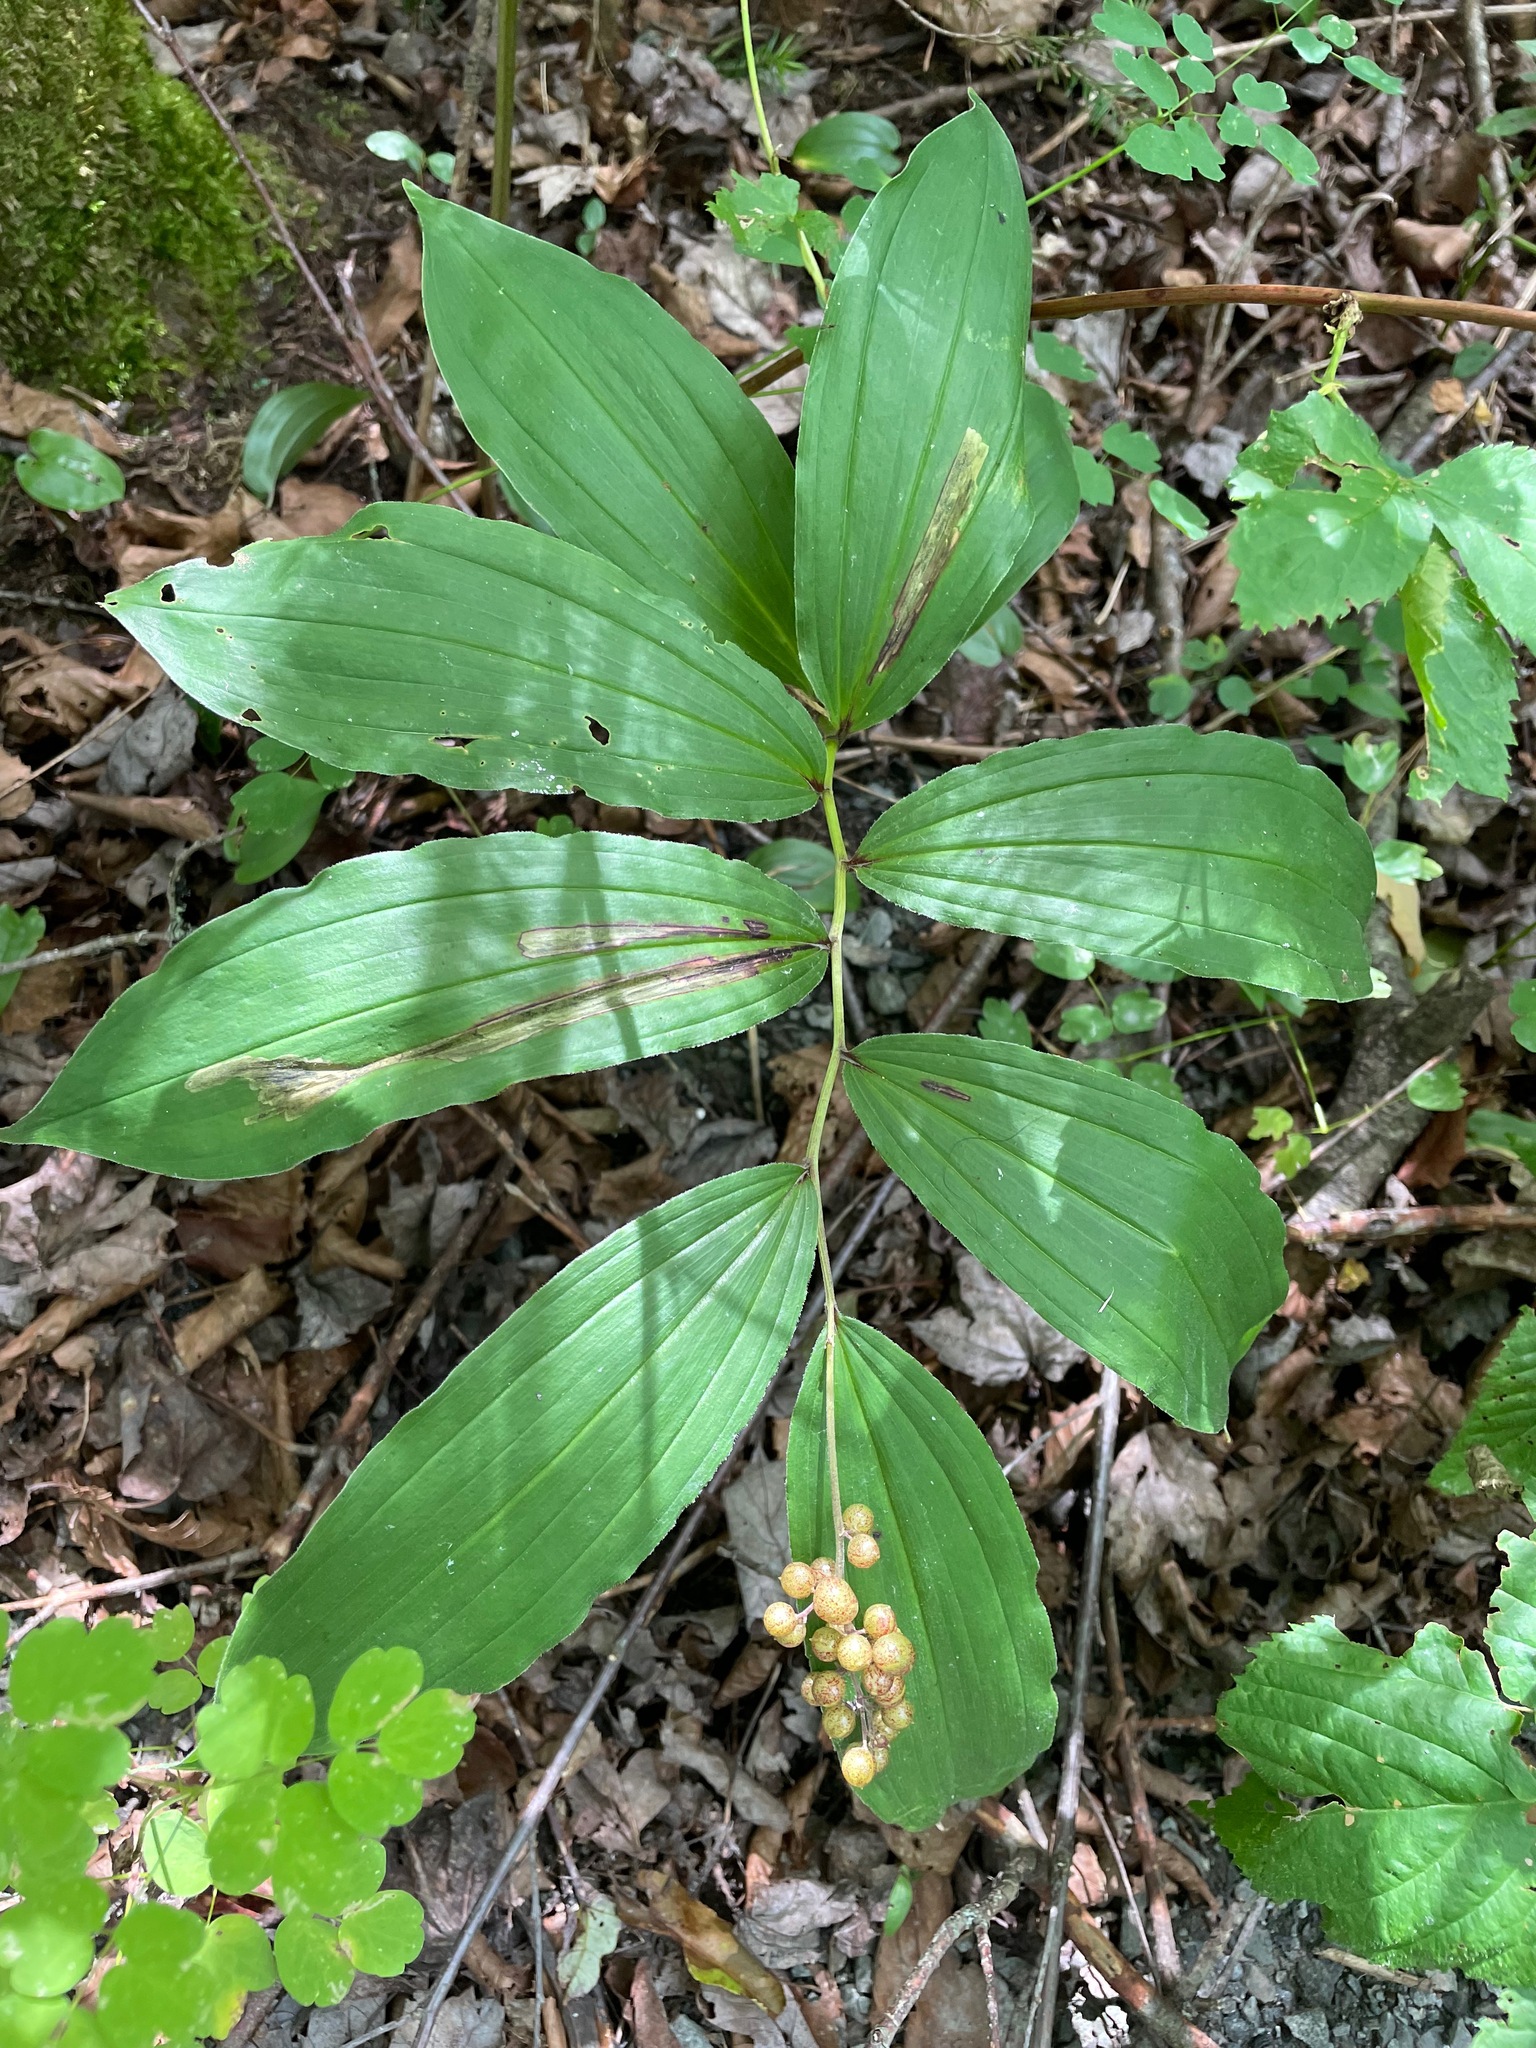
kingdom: Plantae
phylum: Tracheophyta
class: Liliopsida
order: Asparagales
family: Asparagaceae
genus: Maianthemum
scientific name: Maianthemum racemosum
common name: False spikenard
